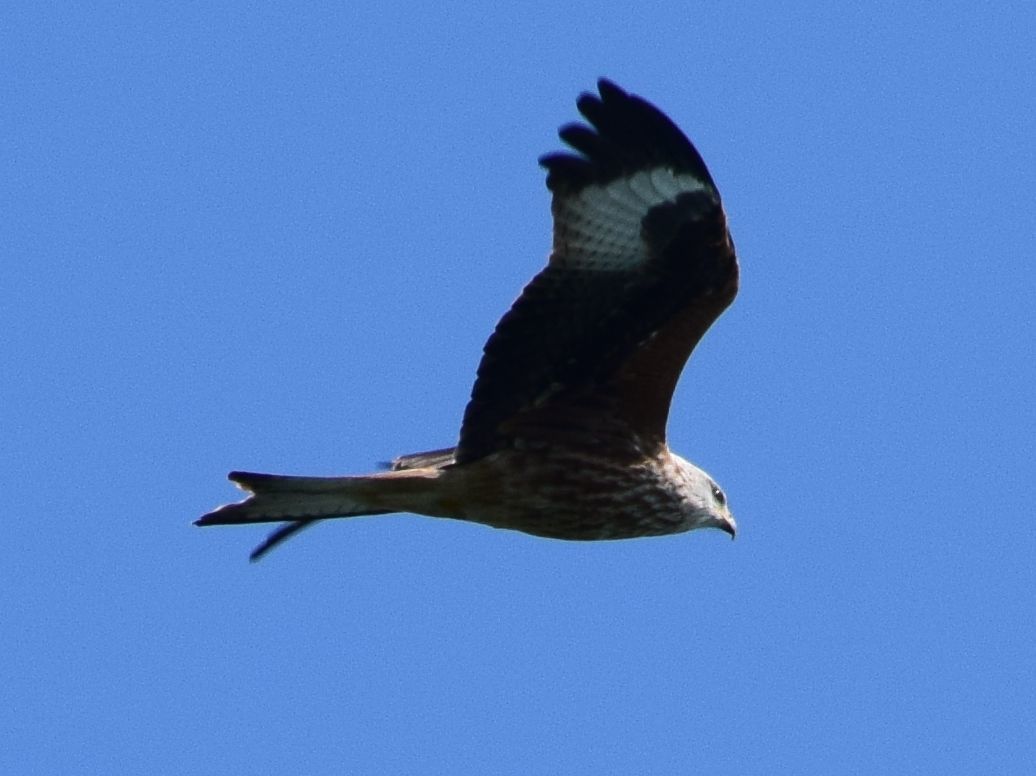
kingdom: Animalia
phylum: Chordata
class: Aves
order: Accipitriformes
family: Accipitridae
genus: Milvus
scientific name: Milvus milvus
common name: Red kite
